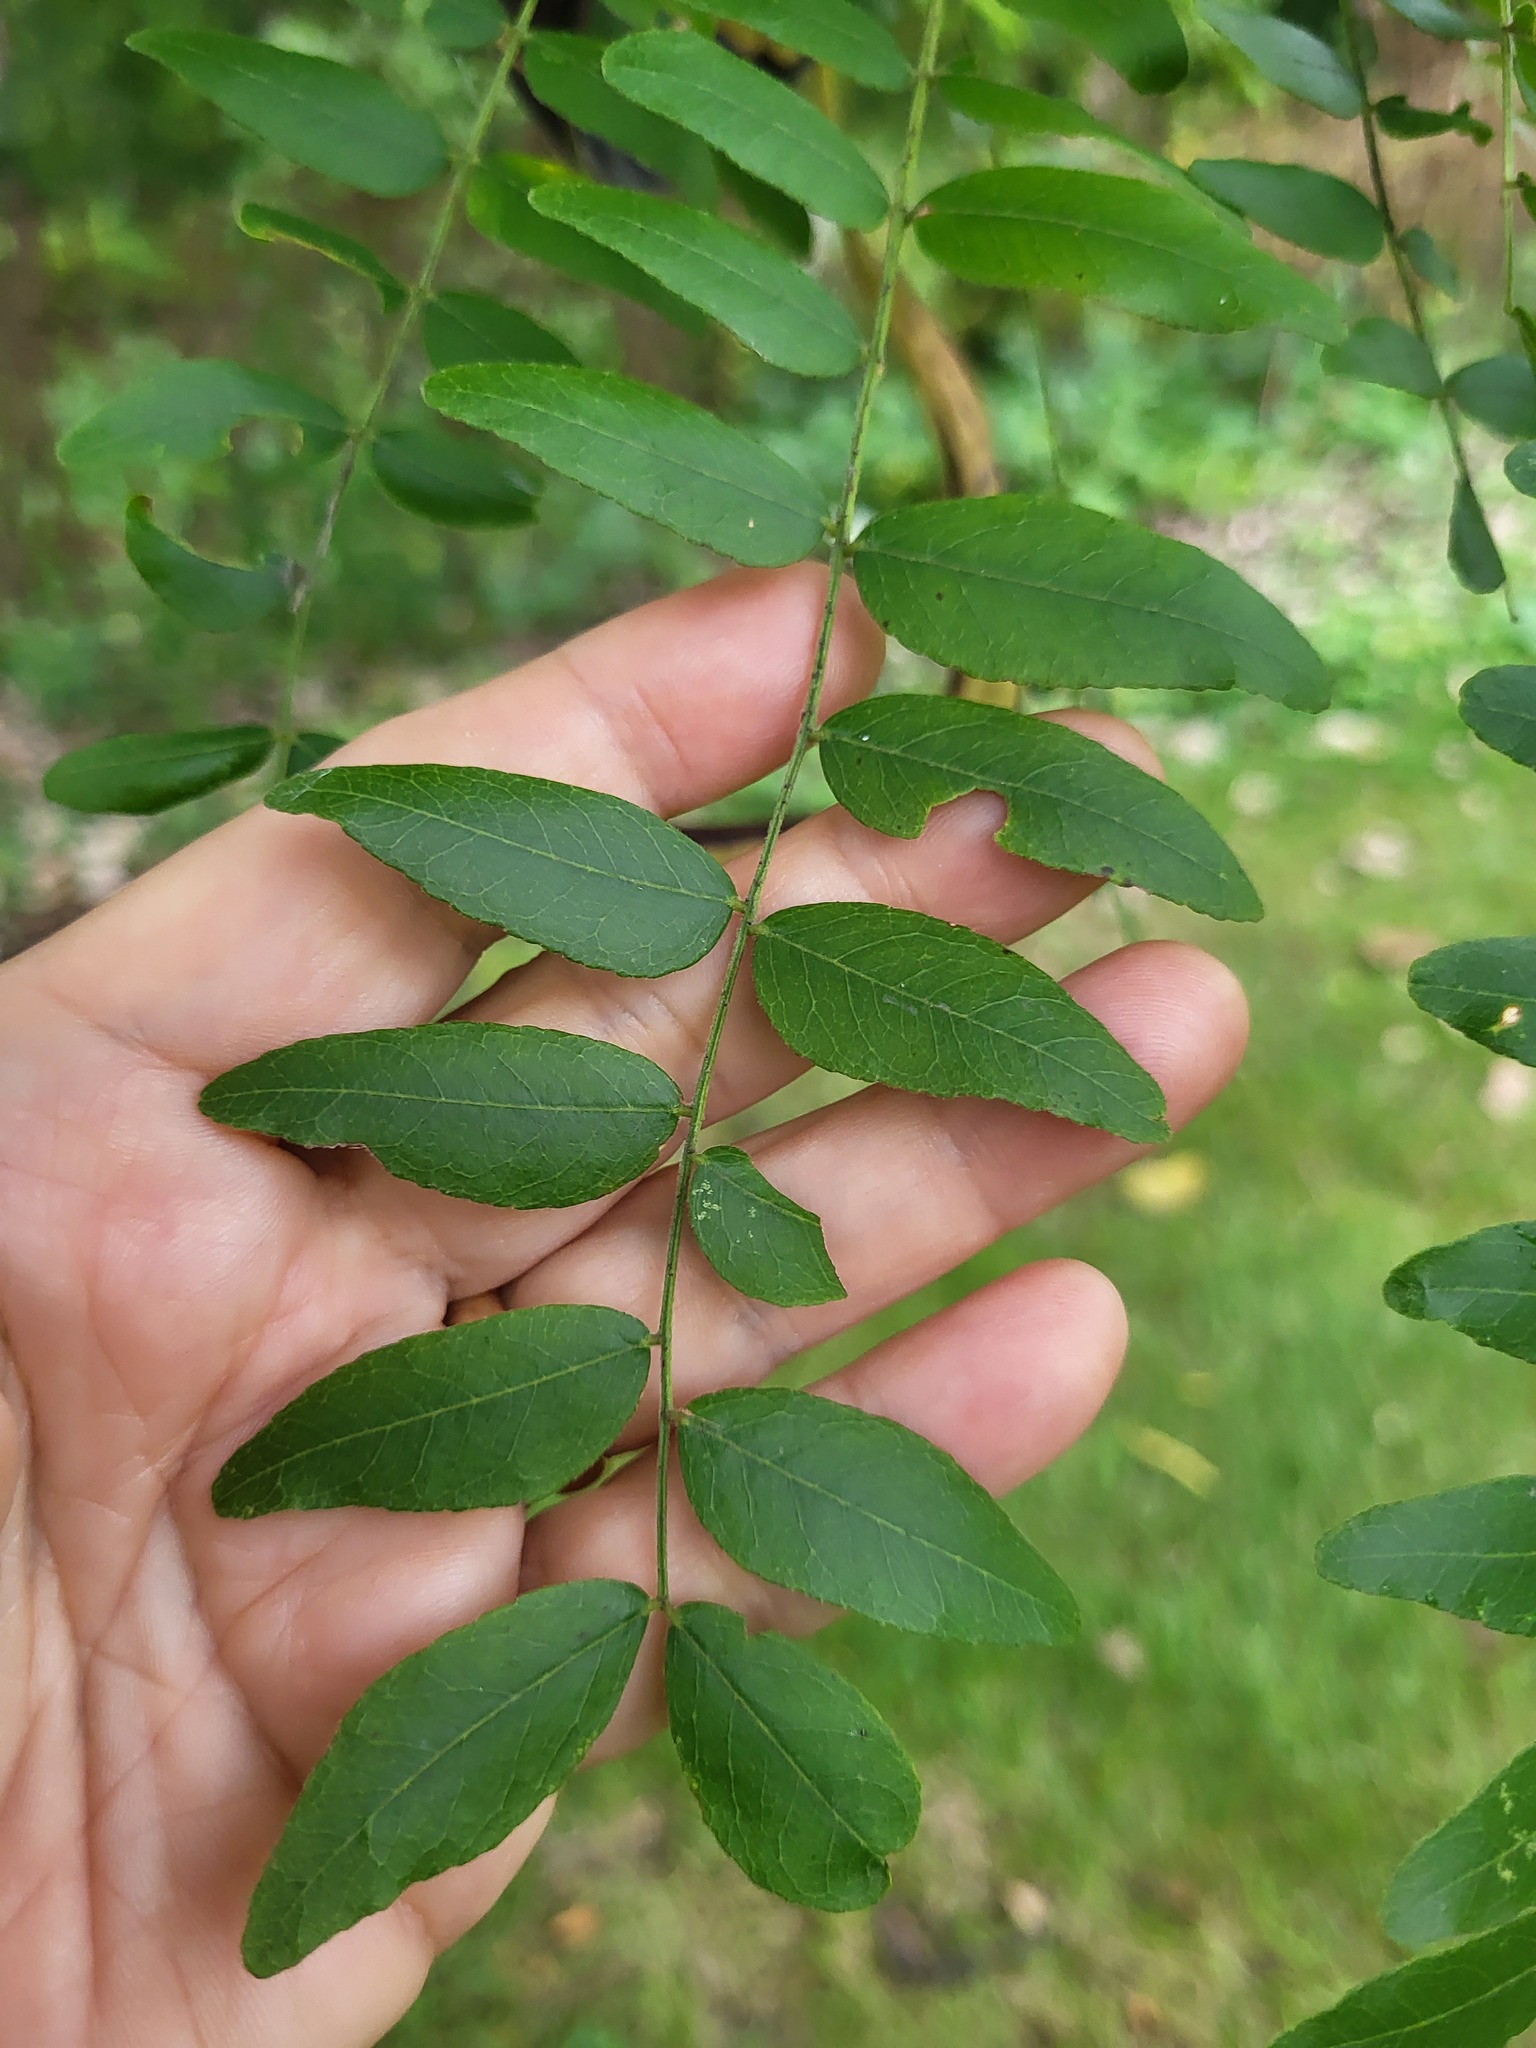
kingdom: Plantae
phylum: Tracheophyta
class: Magnoliopsida
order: Fabales
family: Fabaceae
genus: Gleditsia
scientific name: Gleditsia triacanthos
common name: Common honeylocust
